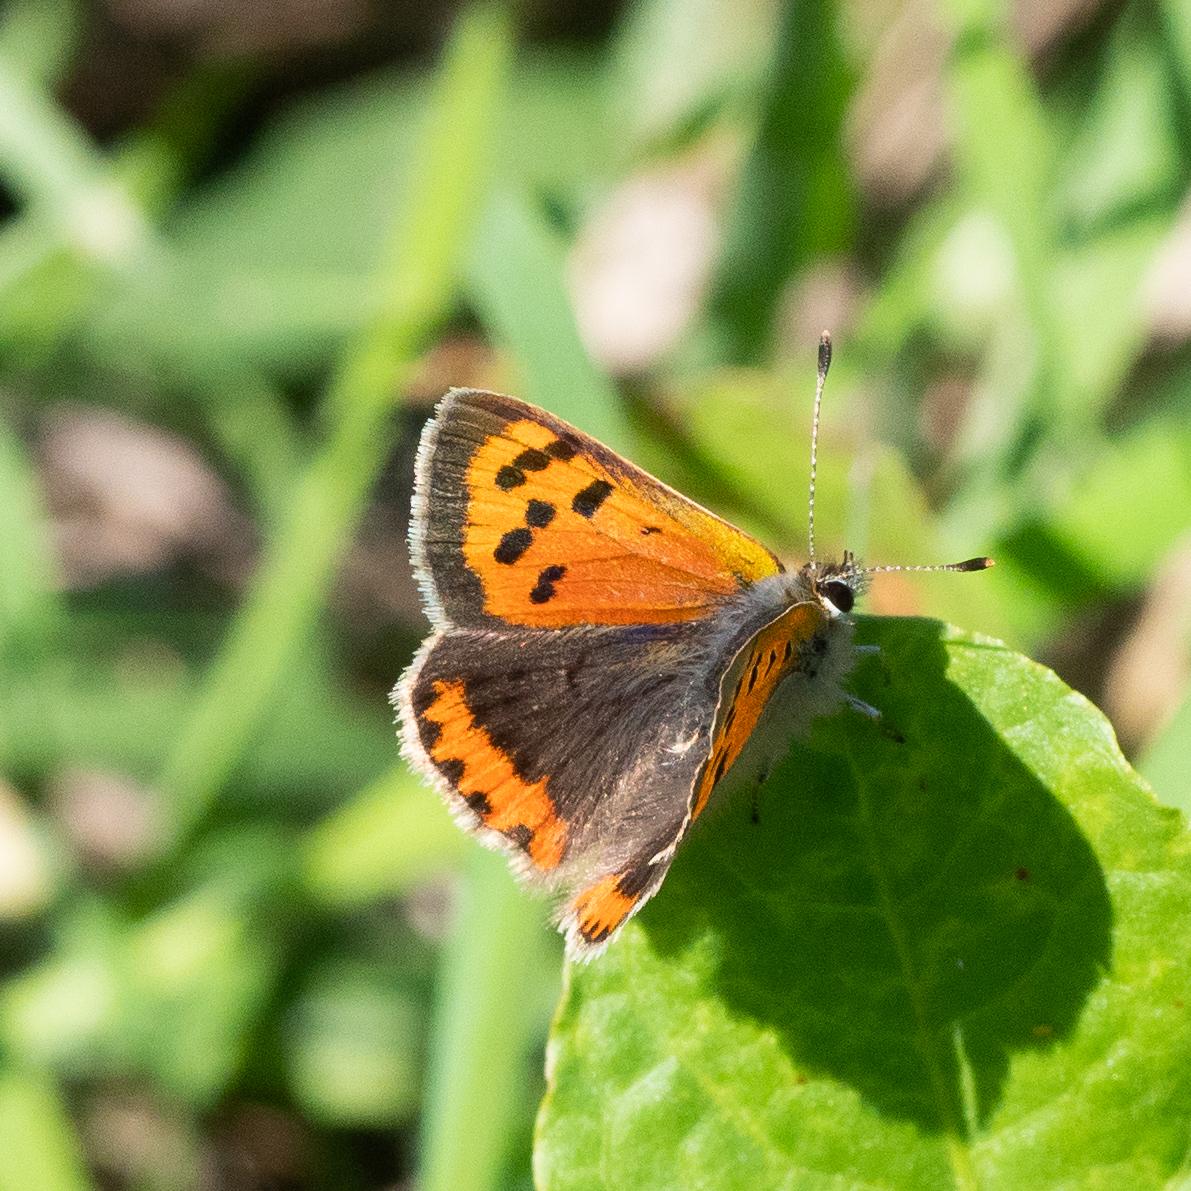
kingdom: Animalia
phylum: Arthropoda
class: Insecta
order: Lepidoptera
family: Lycaenidae
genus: Lycaena
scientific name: Lycaena phlaeas
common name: Small copper
